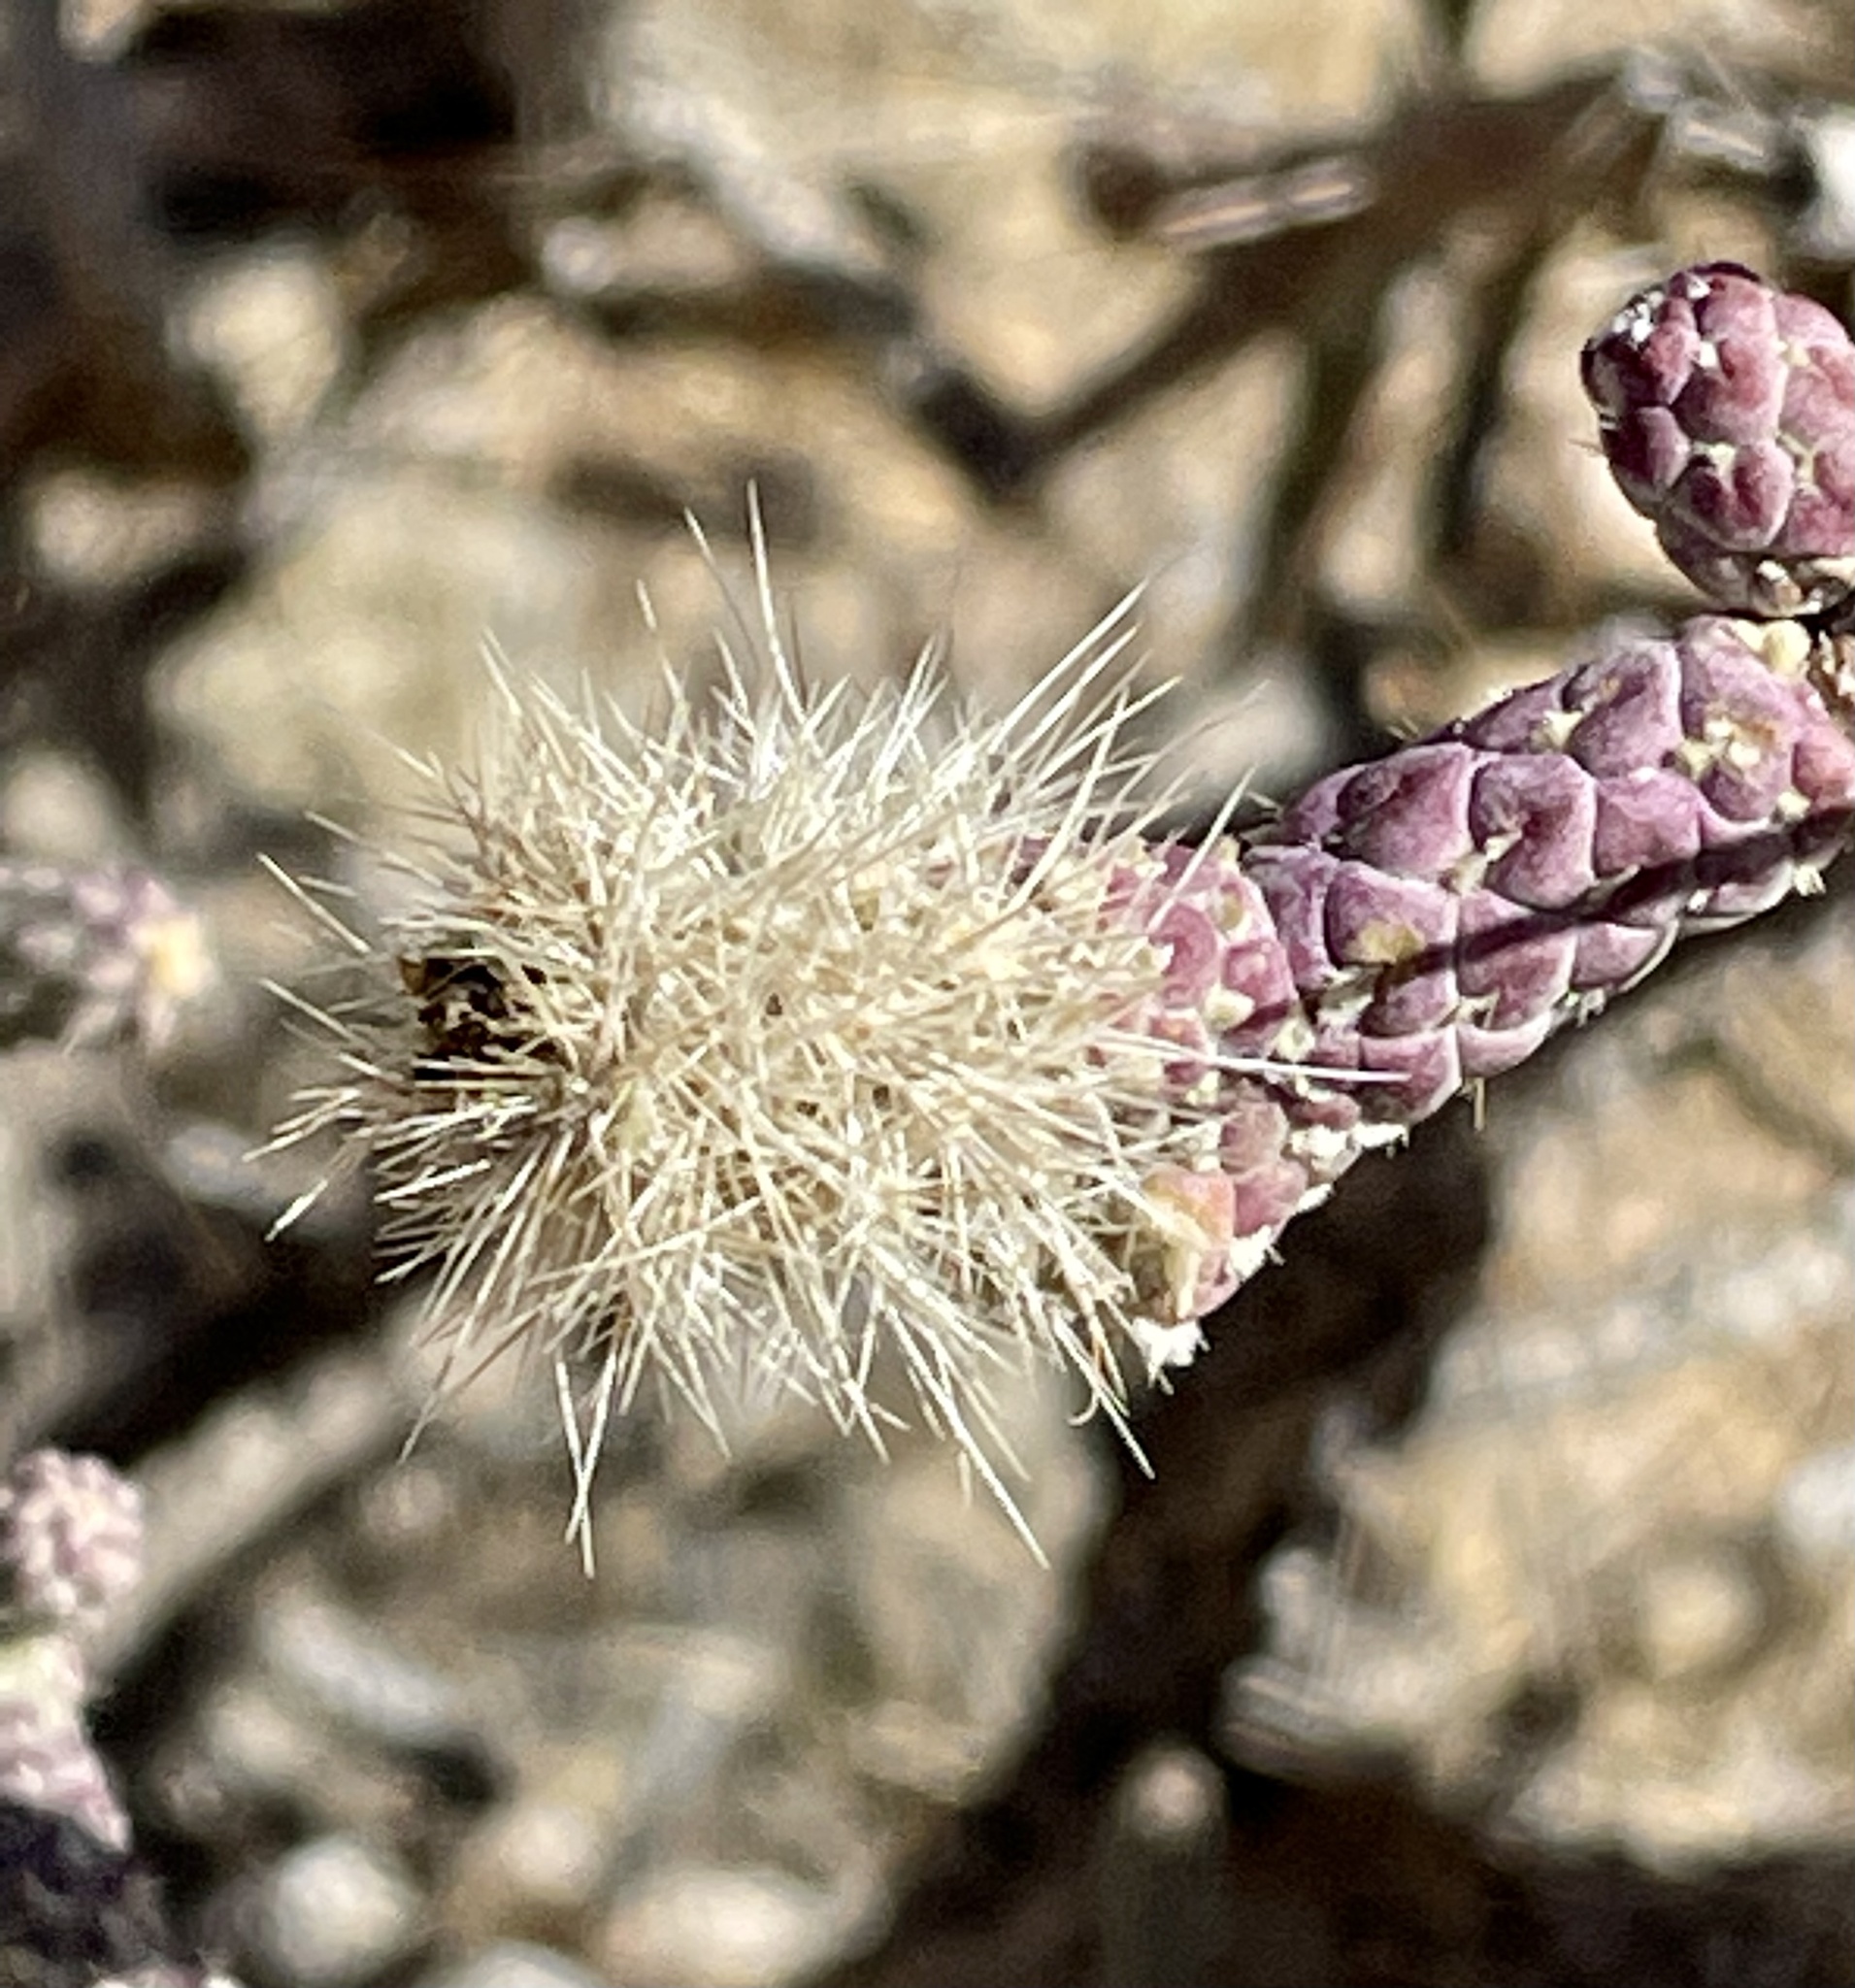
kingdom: Plantae
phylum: Tracheophyta
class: Magnoliopsida
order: Caryophyllales
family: Cactaceae
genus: Cylindropuntia
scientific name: Cylindropuntia ramosissima
